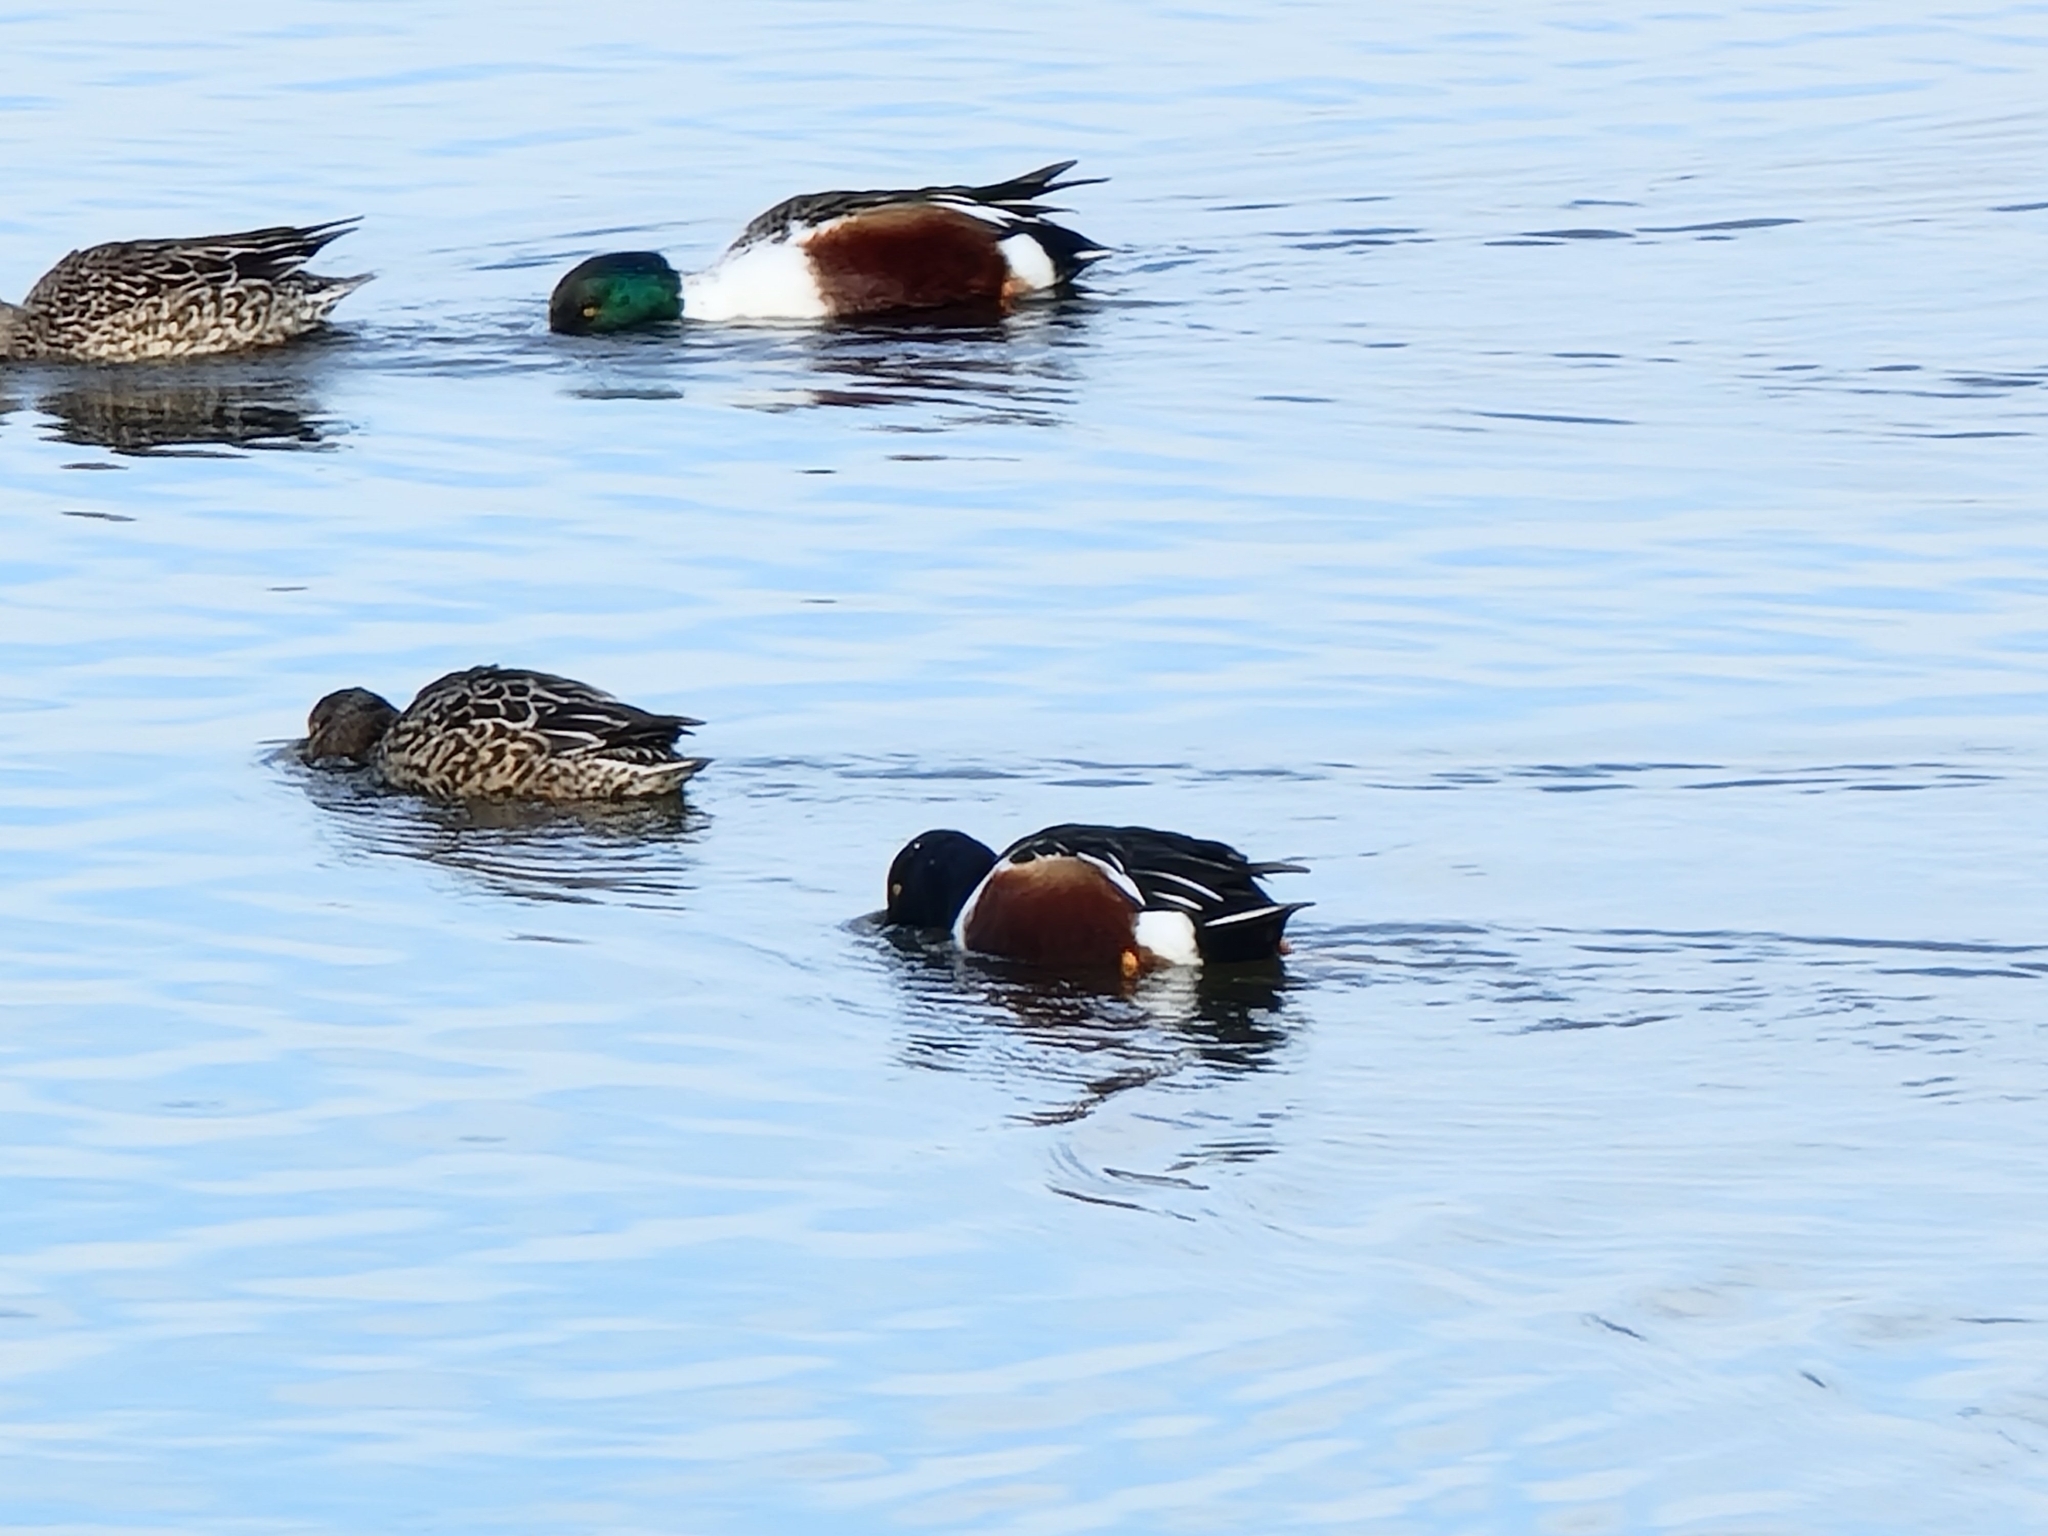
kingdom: Animalia
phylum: Chordata
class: Aves
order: Anseriformes
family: Anatidae
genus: Spatula
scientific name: Spatula clypeata
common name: Northern shoveler
